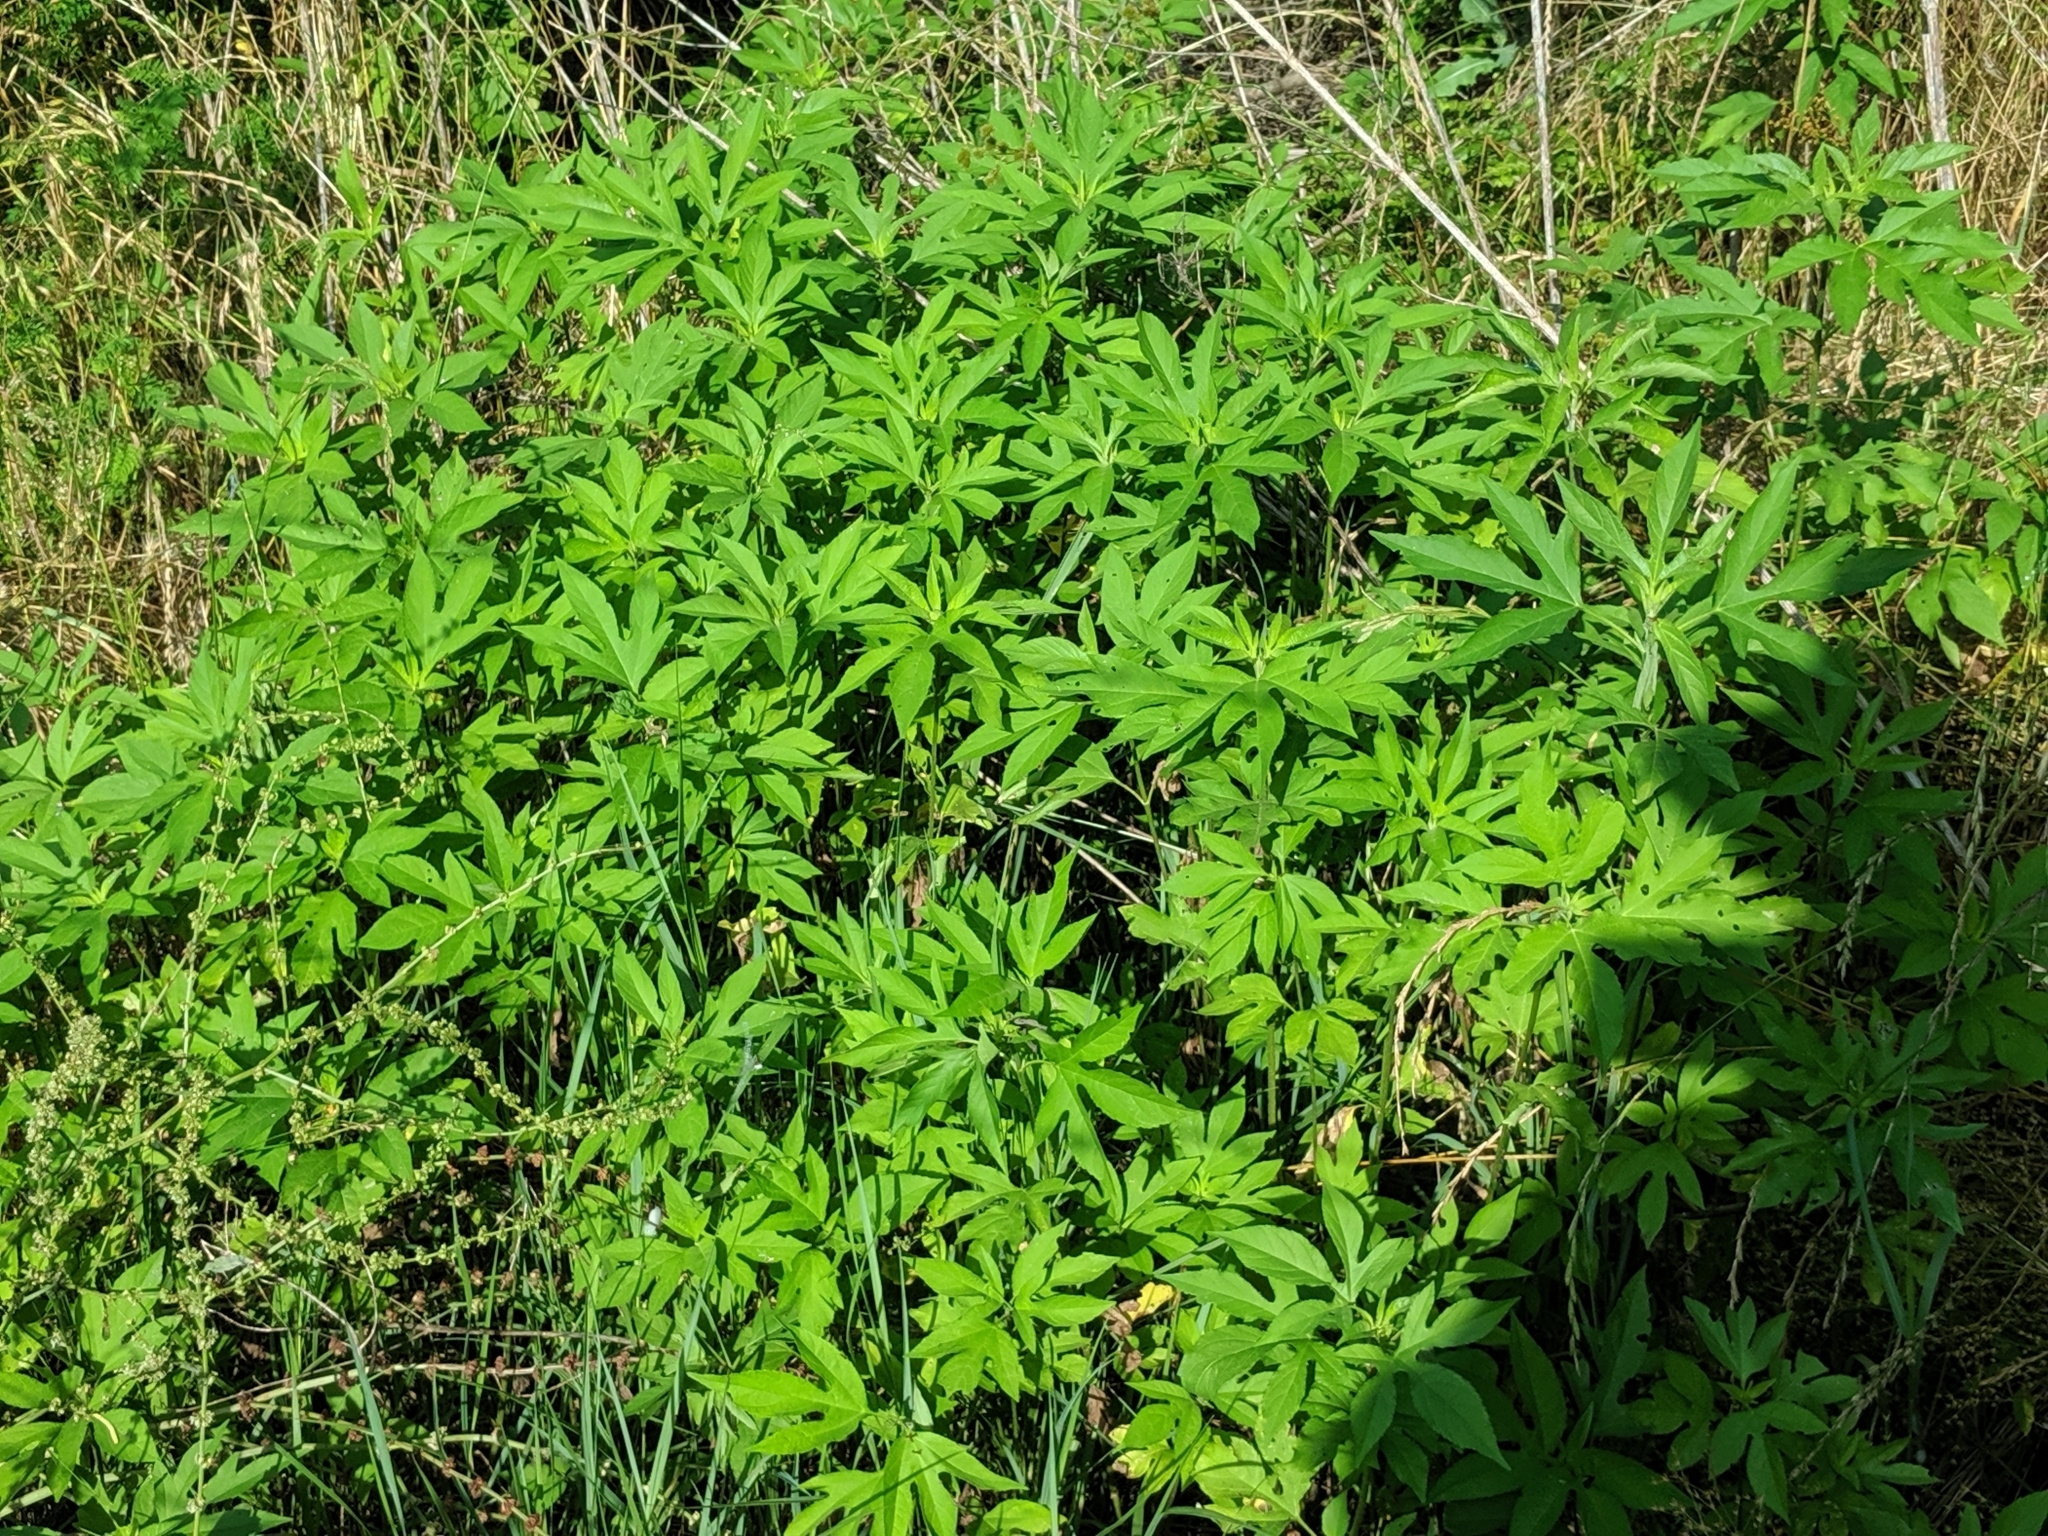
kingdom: Plantae
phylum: Tracheophyta
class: Magnoliopsida
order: Asterales
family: Asteraceae
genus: Ambrosia
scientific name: Ambrosia trifida
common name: Giant ragweed
